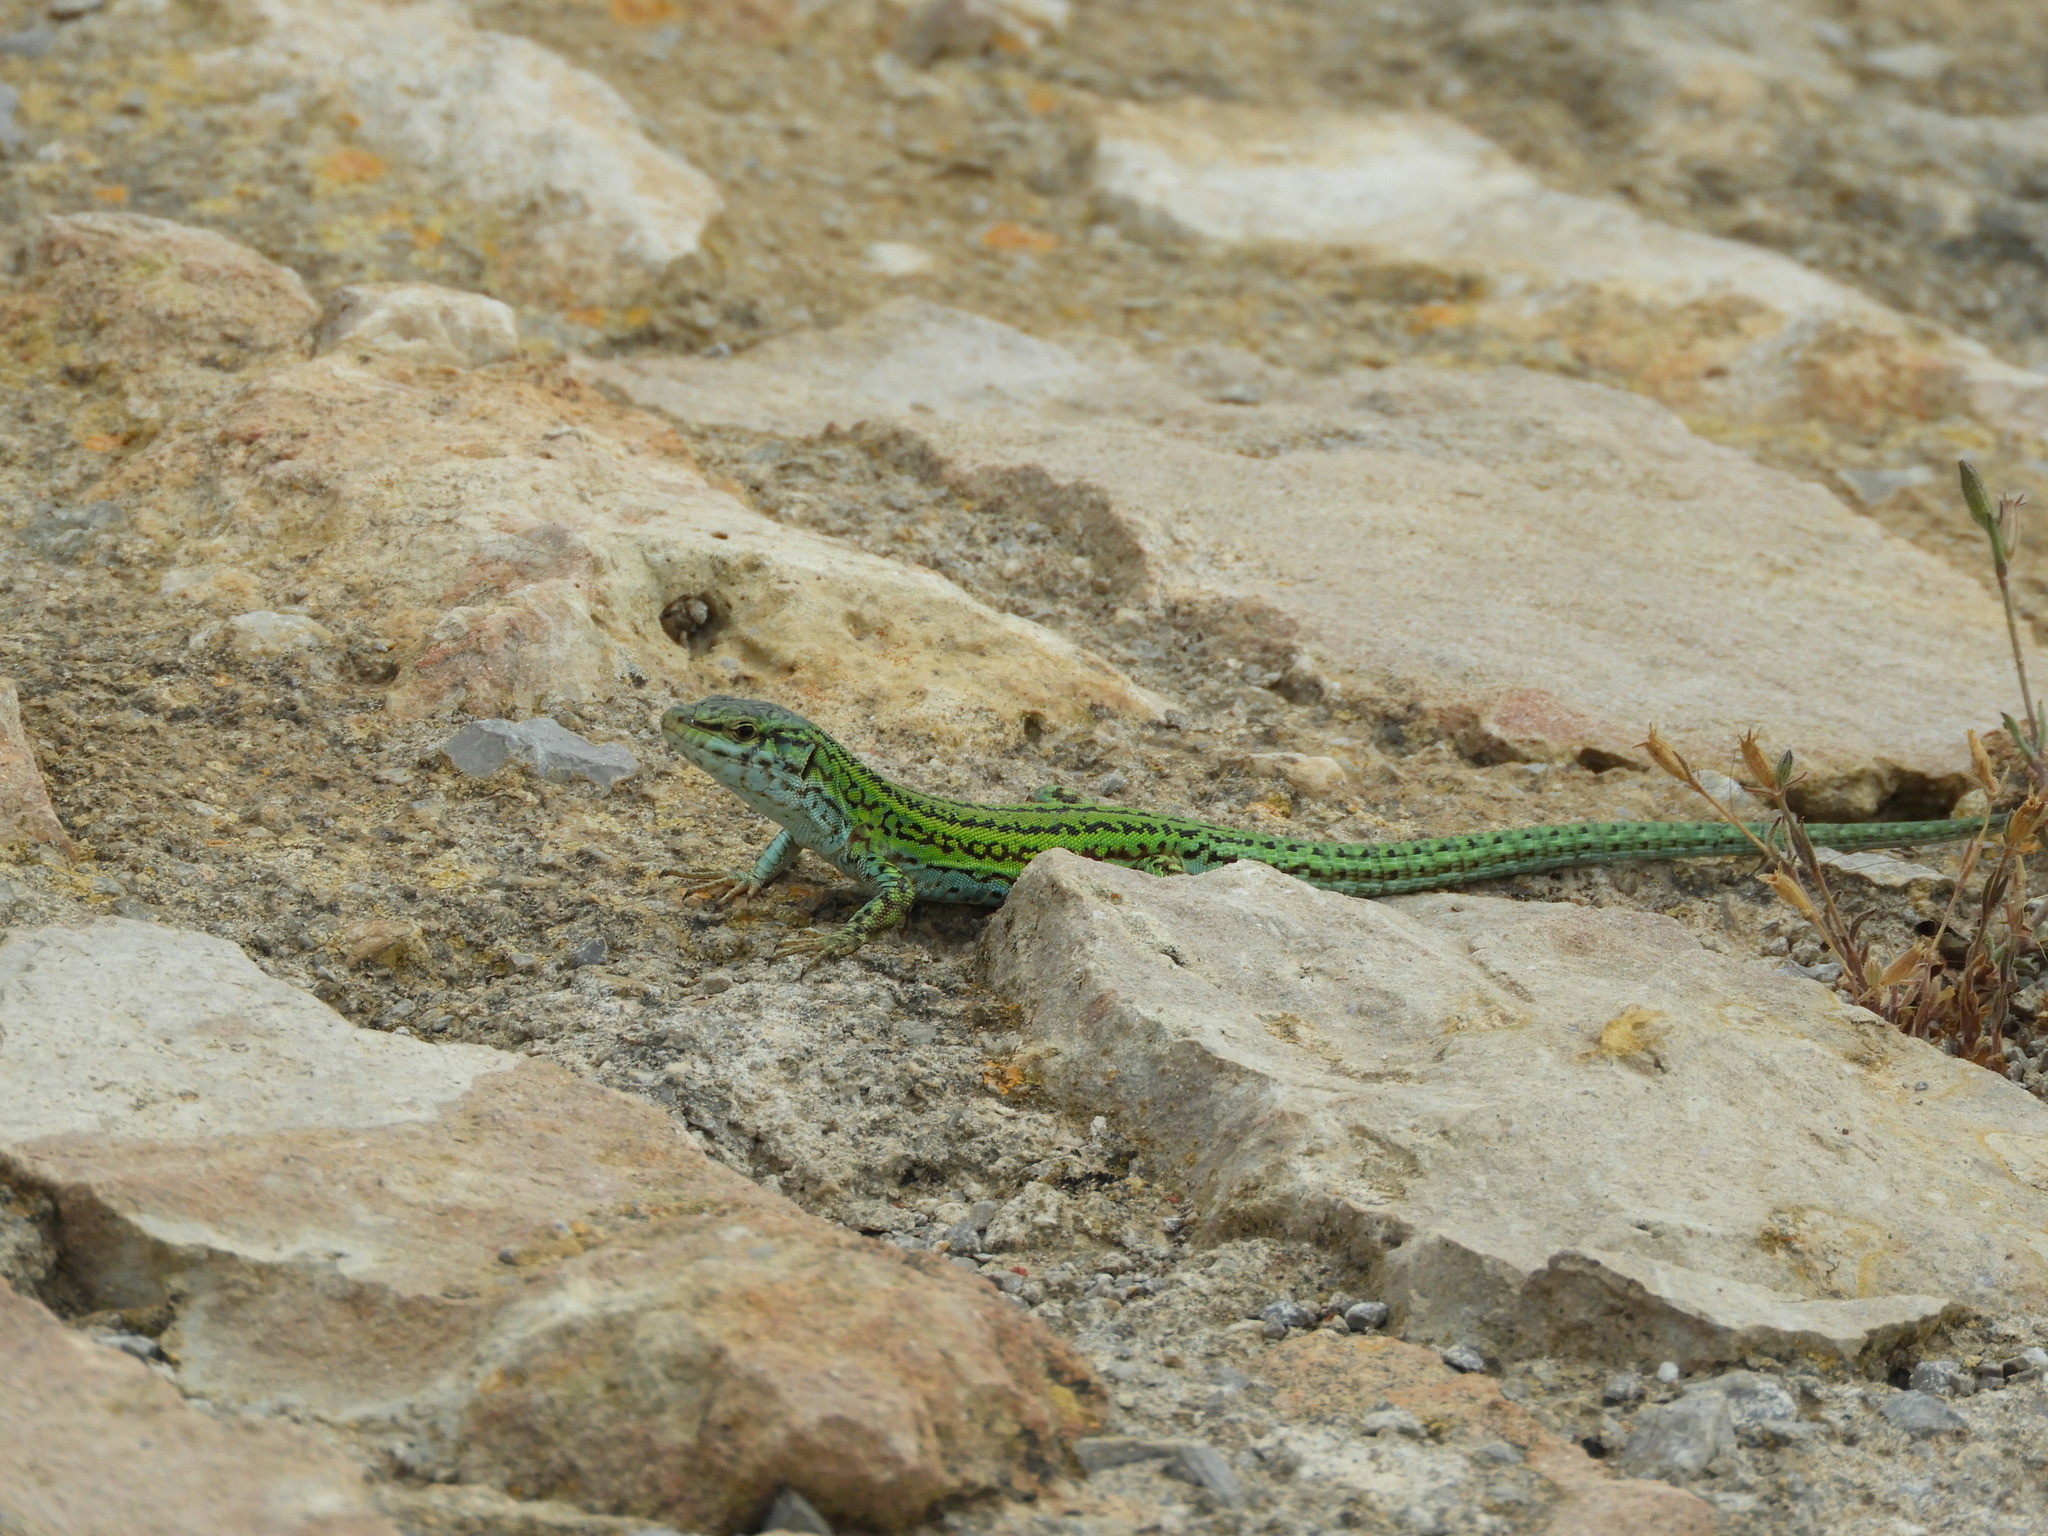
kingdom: Animalia
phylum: Chordata
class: Squamata
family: Lacertidae
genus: Podarcis
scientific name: Podarcis pityusensis
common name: Ibiza wall lizard
